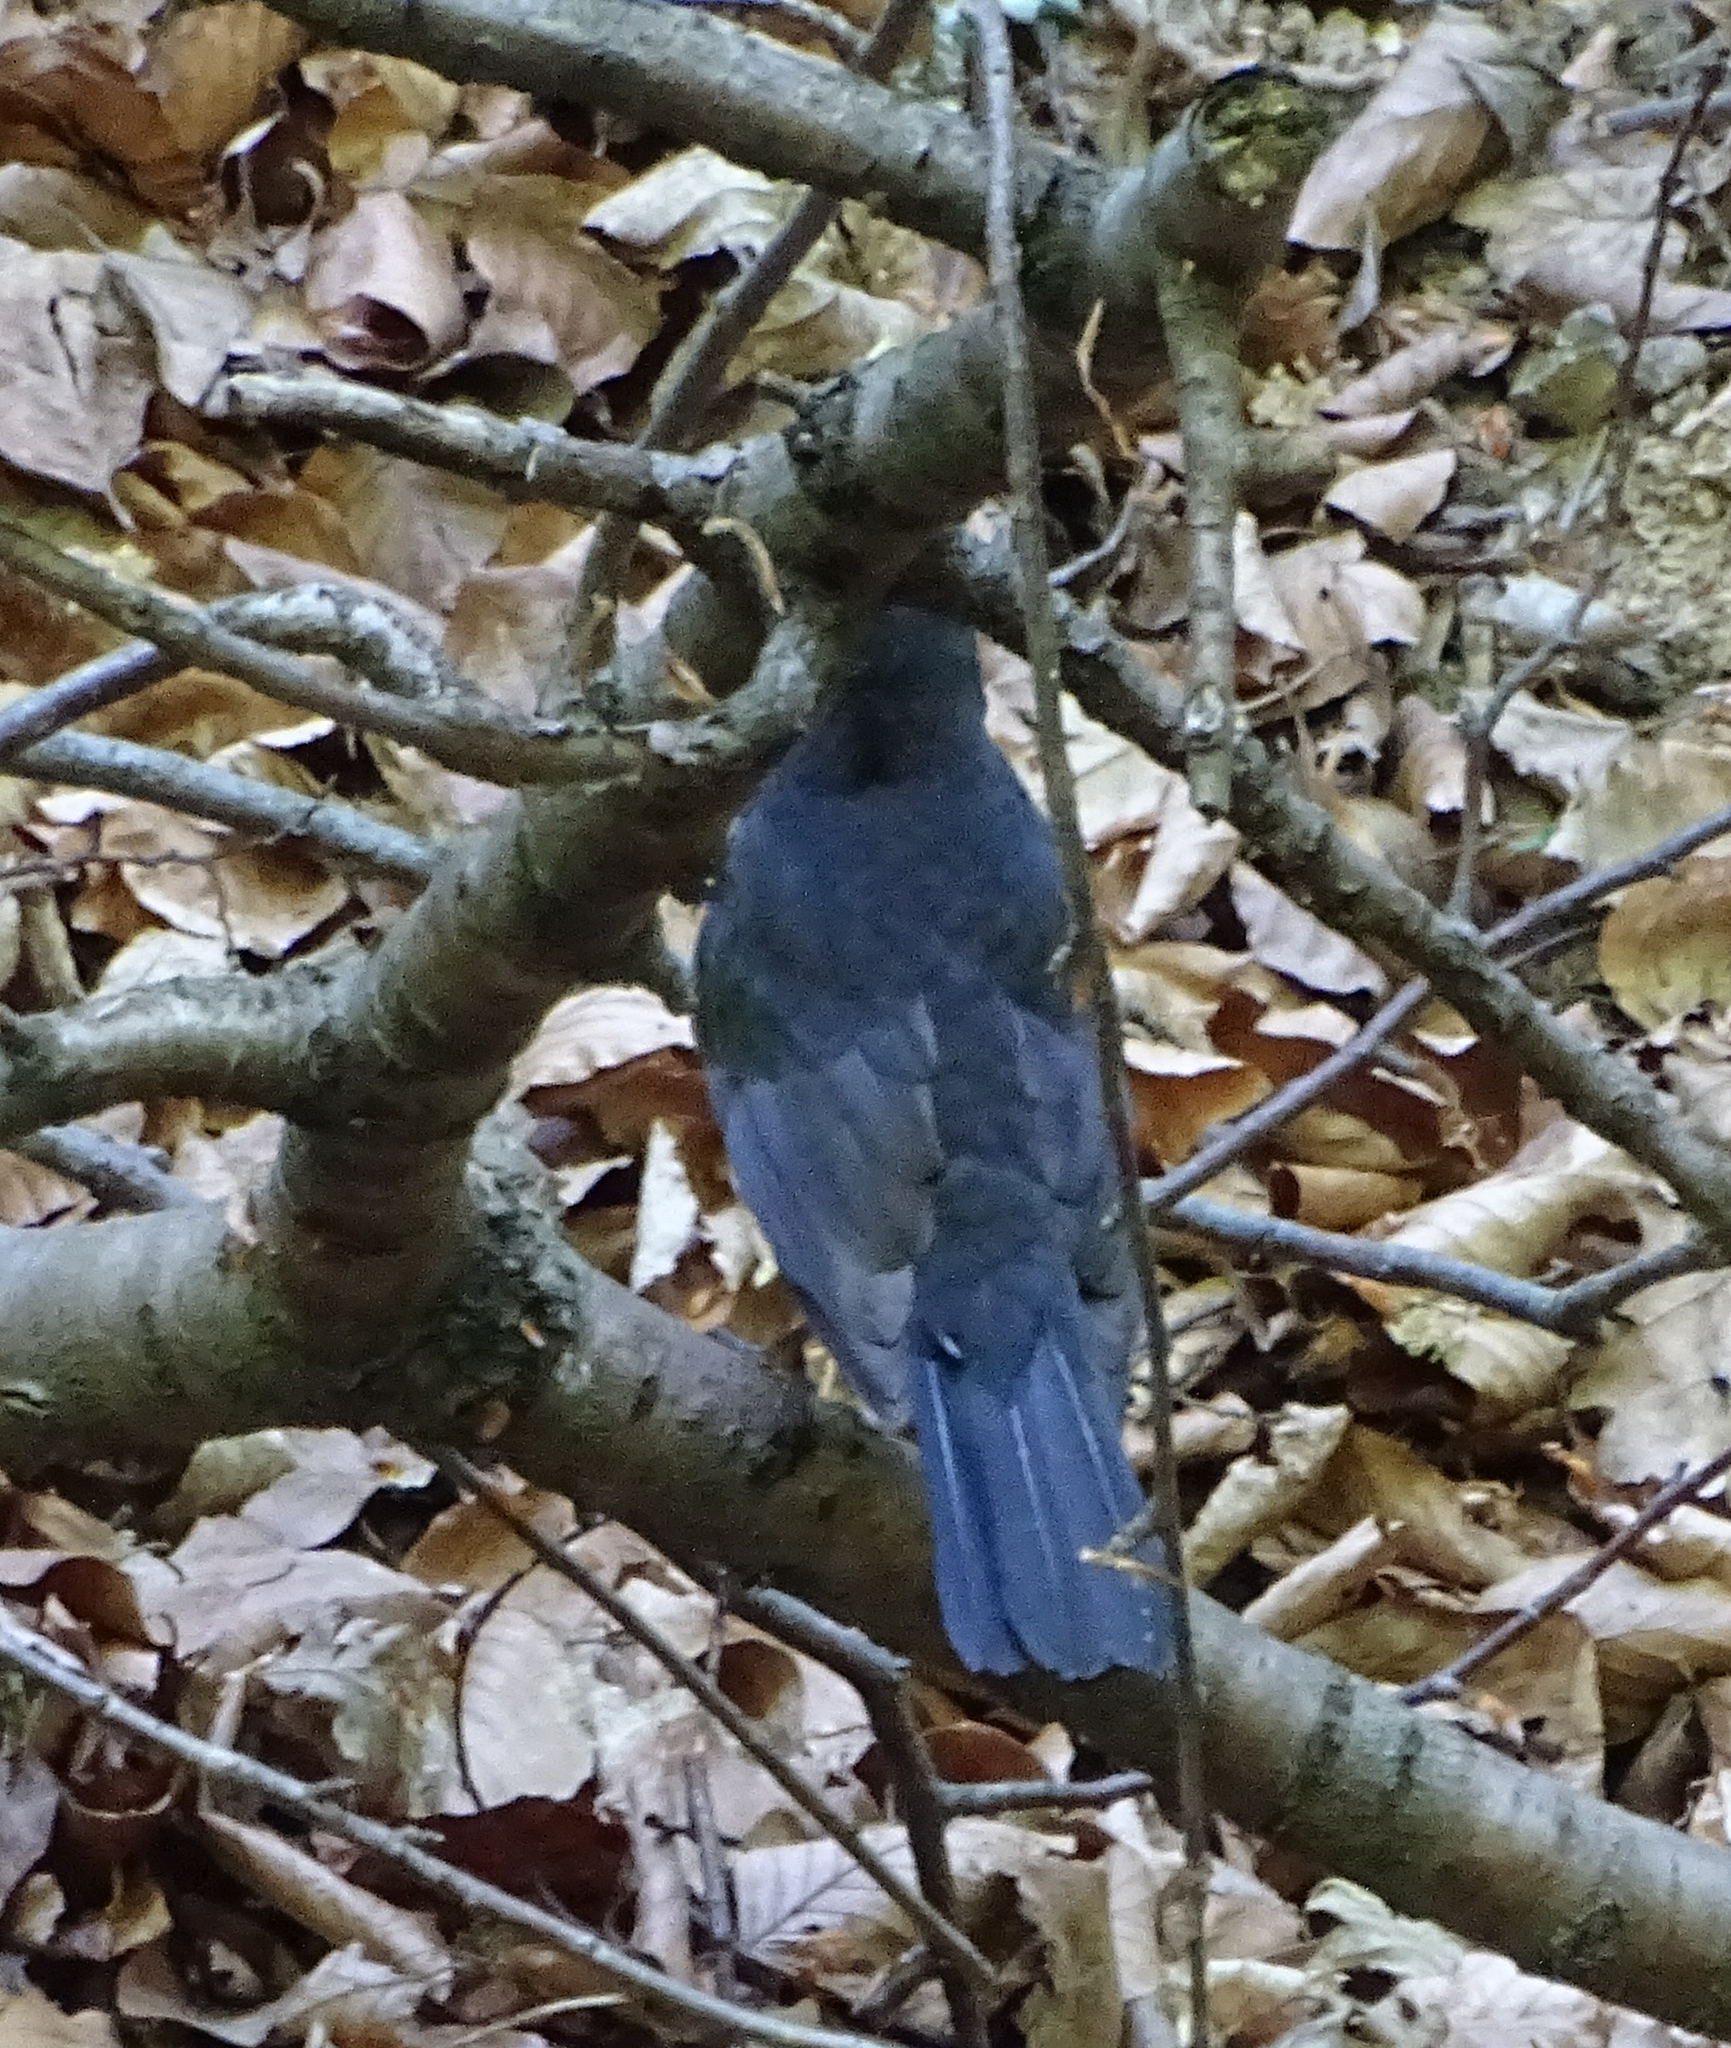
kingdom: Animalia
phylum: Chordata
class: Aves
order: Passeriformes
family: Turdidae
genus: Turdus
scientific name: Turdus merula
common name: Common blackbird
